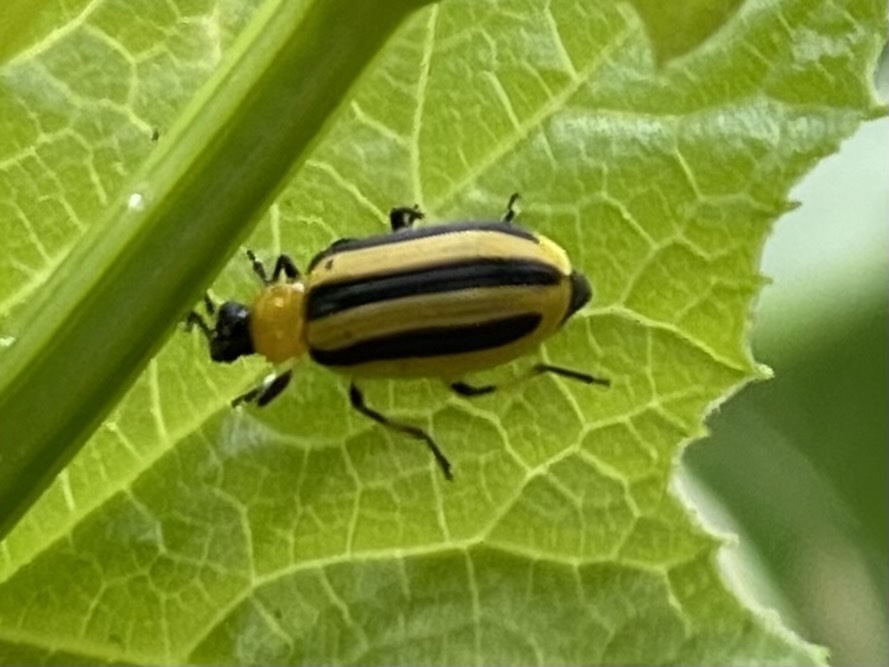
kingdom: Animalia
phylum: Arthropoda
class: Insecta
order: Coleoptera
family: Chrysomelidae
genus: Acalymma
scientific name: Acalymma vittatum
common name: Striped cucumber beetle
